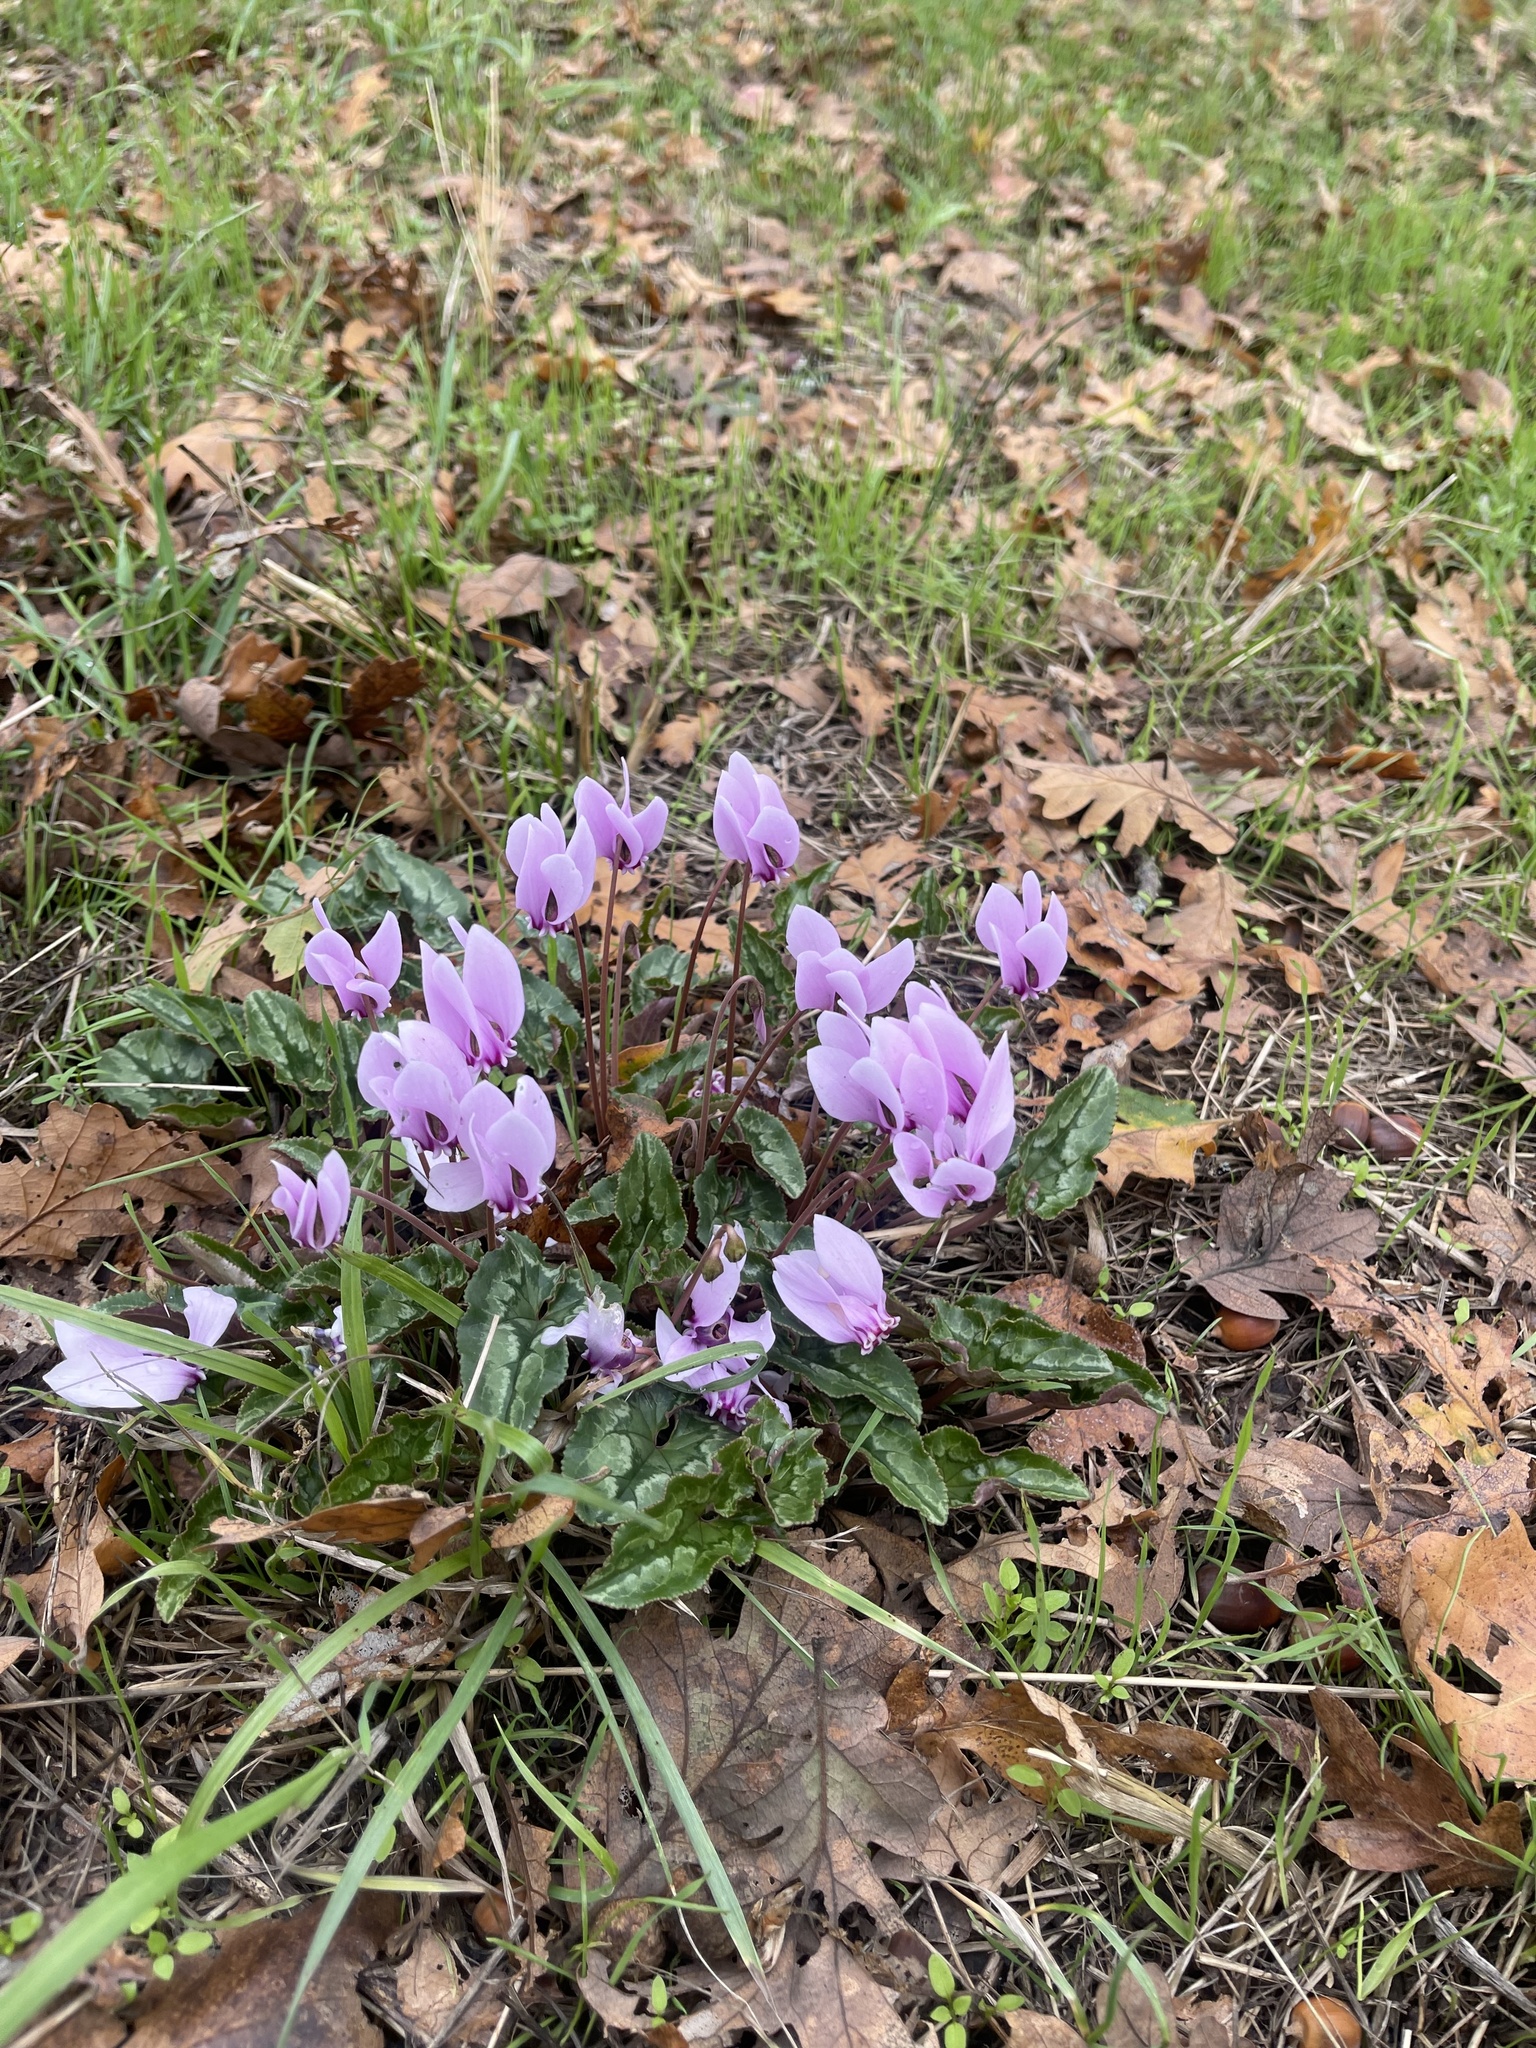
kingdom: Plantae
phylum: Tracheophyta
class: Magnoliopsida
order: Ericales
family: Primulaceae
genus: Cyclamen
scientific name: Cyclamen hederifolium
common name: Sowbread
